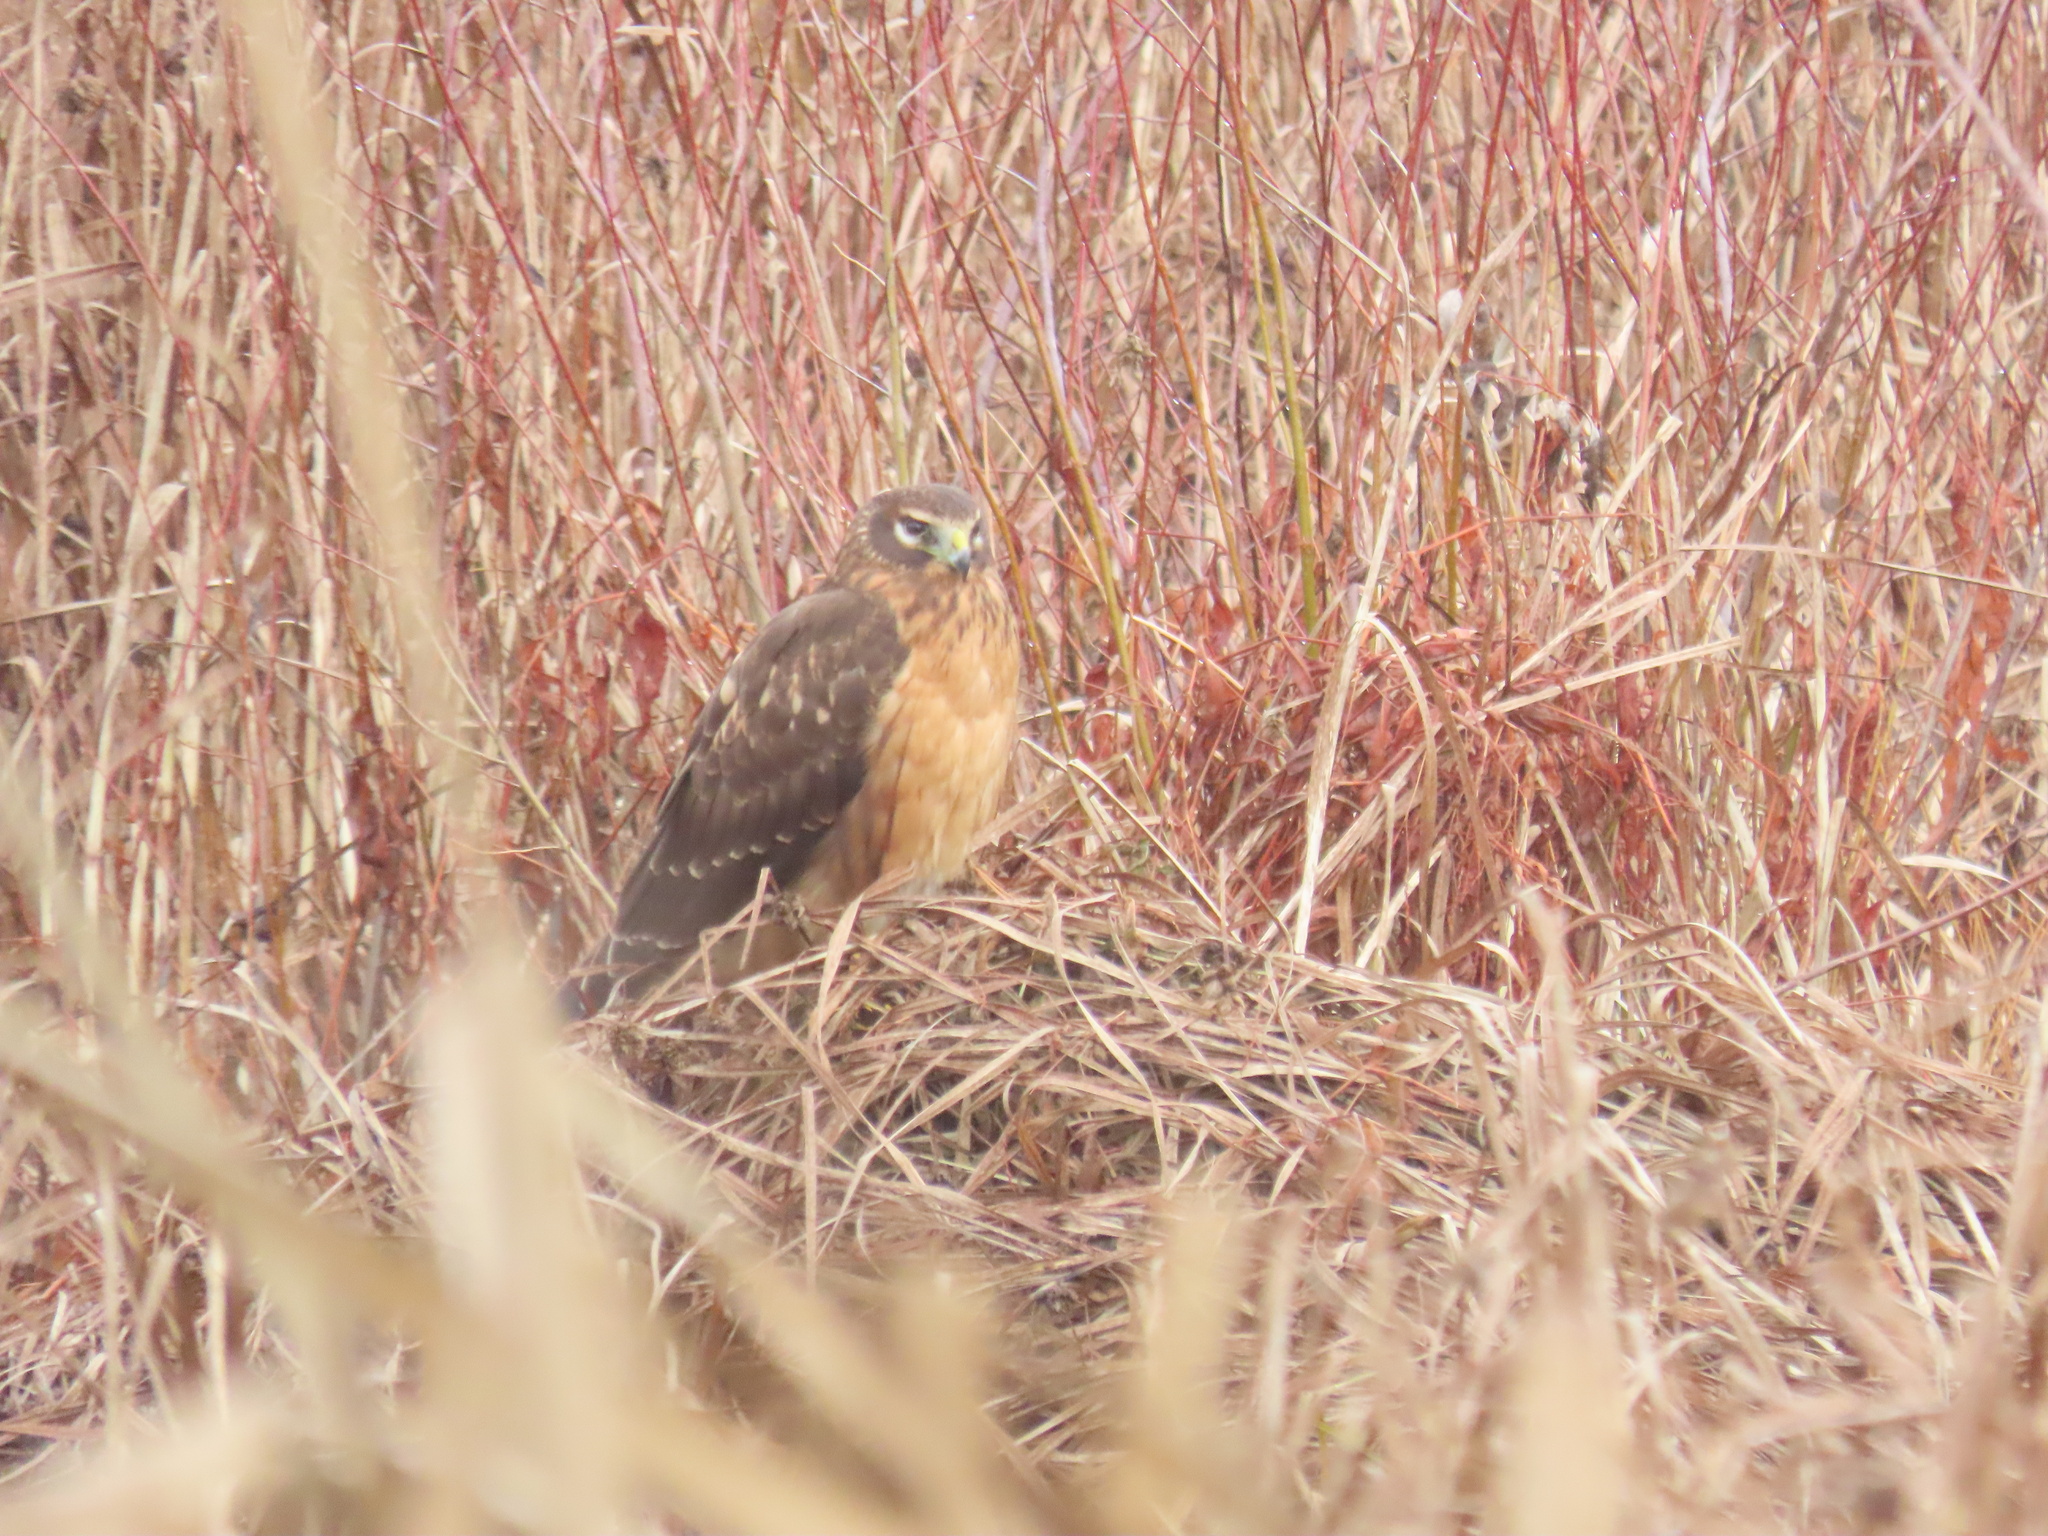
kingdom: Animalia
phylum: Chordata
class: Aves
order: Accipitriformes
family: Accipitridae
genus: Circus
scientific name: Circus cyaneus
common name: Hen harrier
